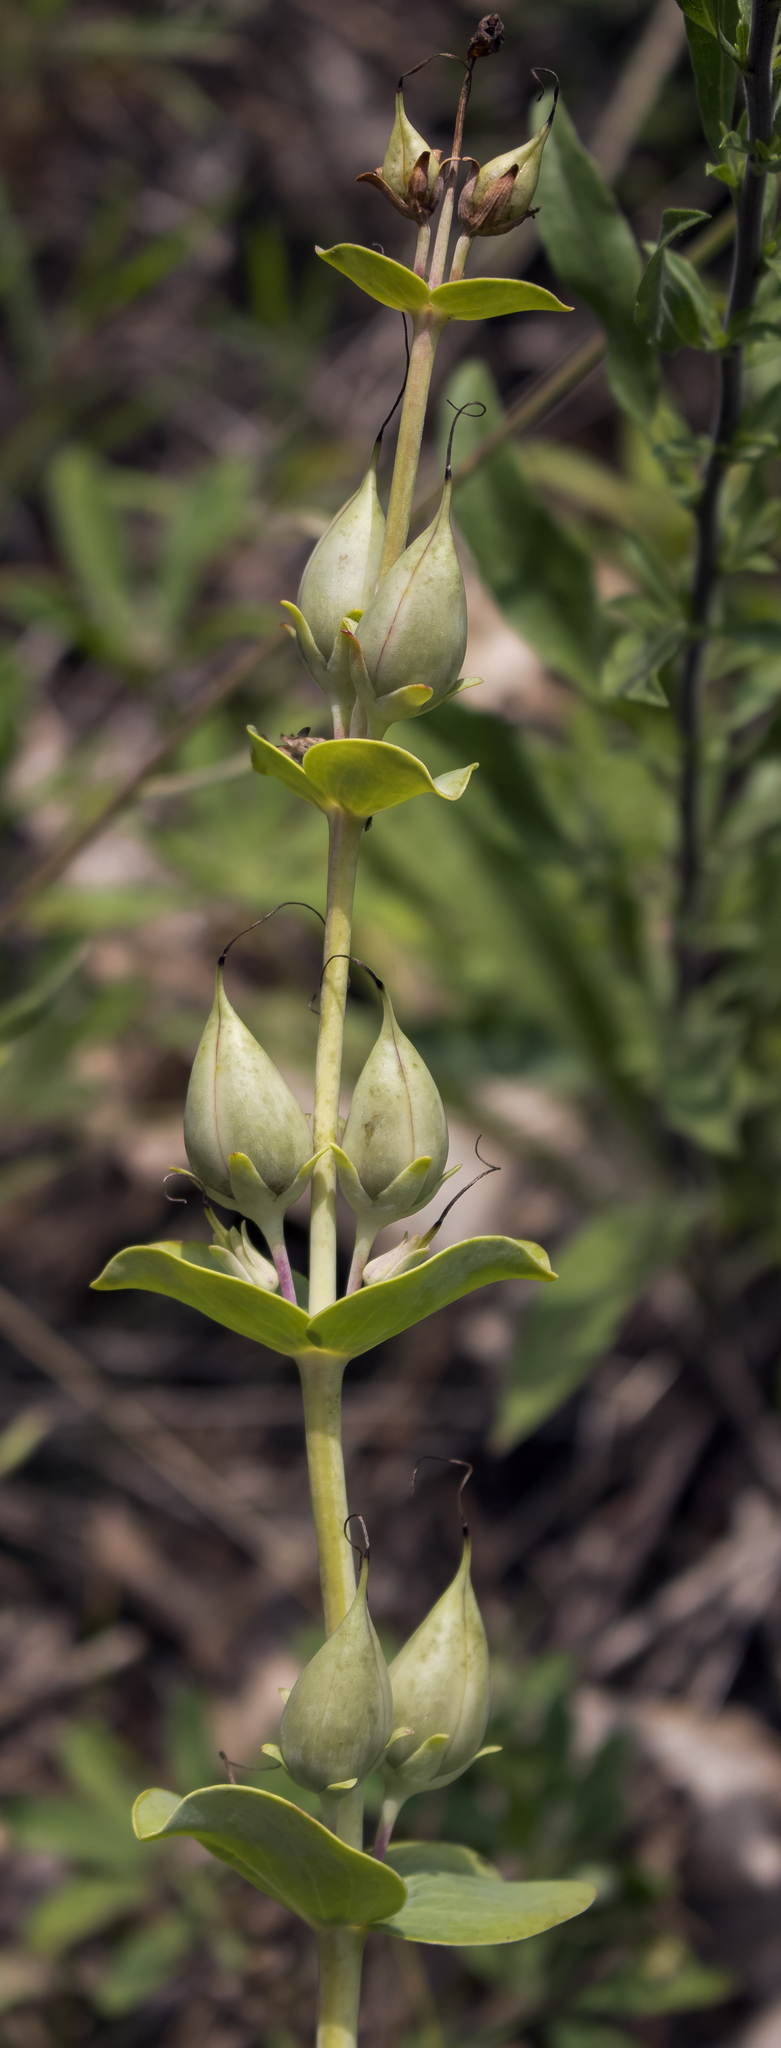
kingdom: Plantae
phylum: Tracheophyta
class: Magnoliopsida
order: Lamiales
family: Plantaginaceae
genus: Penstemon
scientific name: Penstemon
